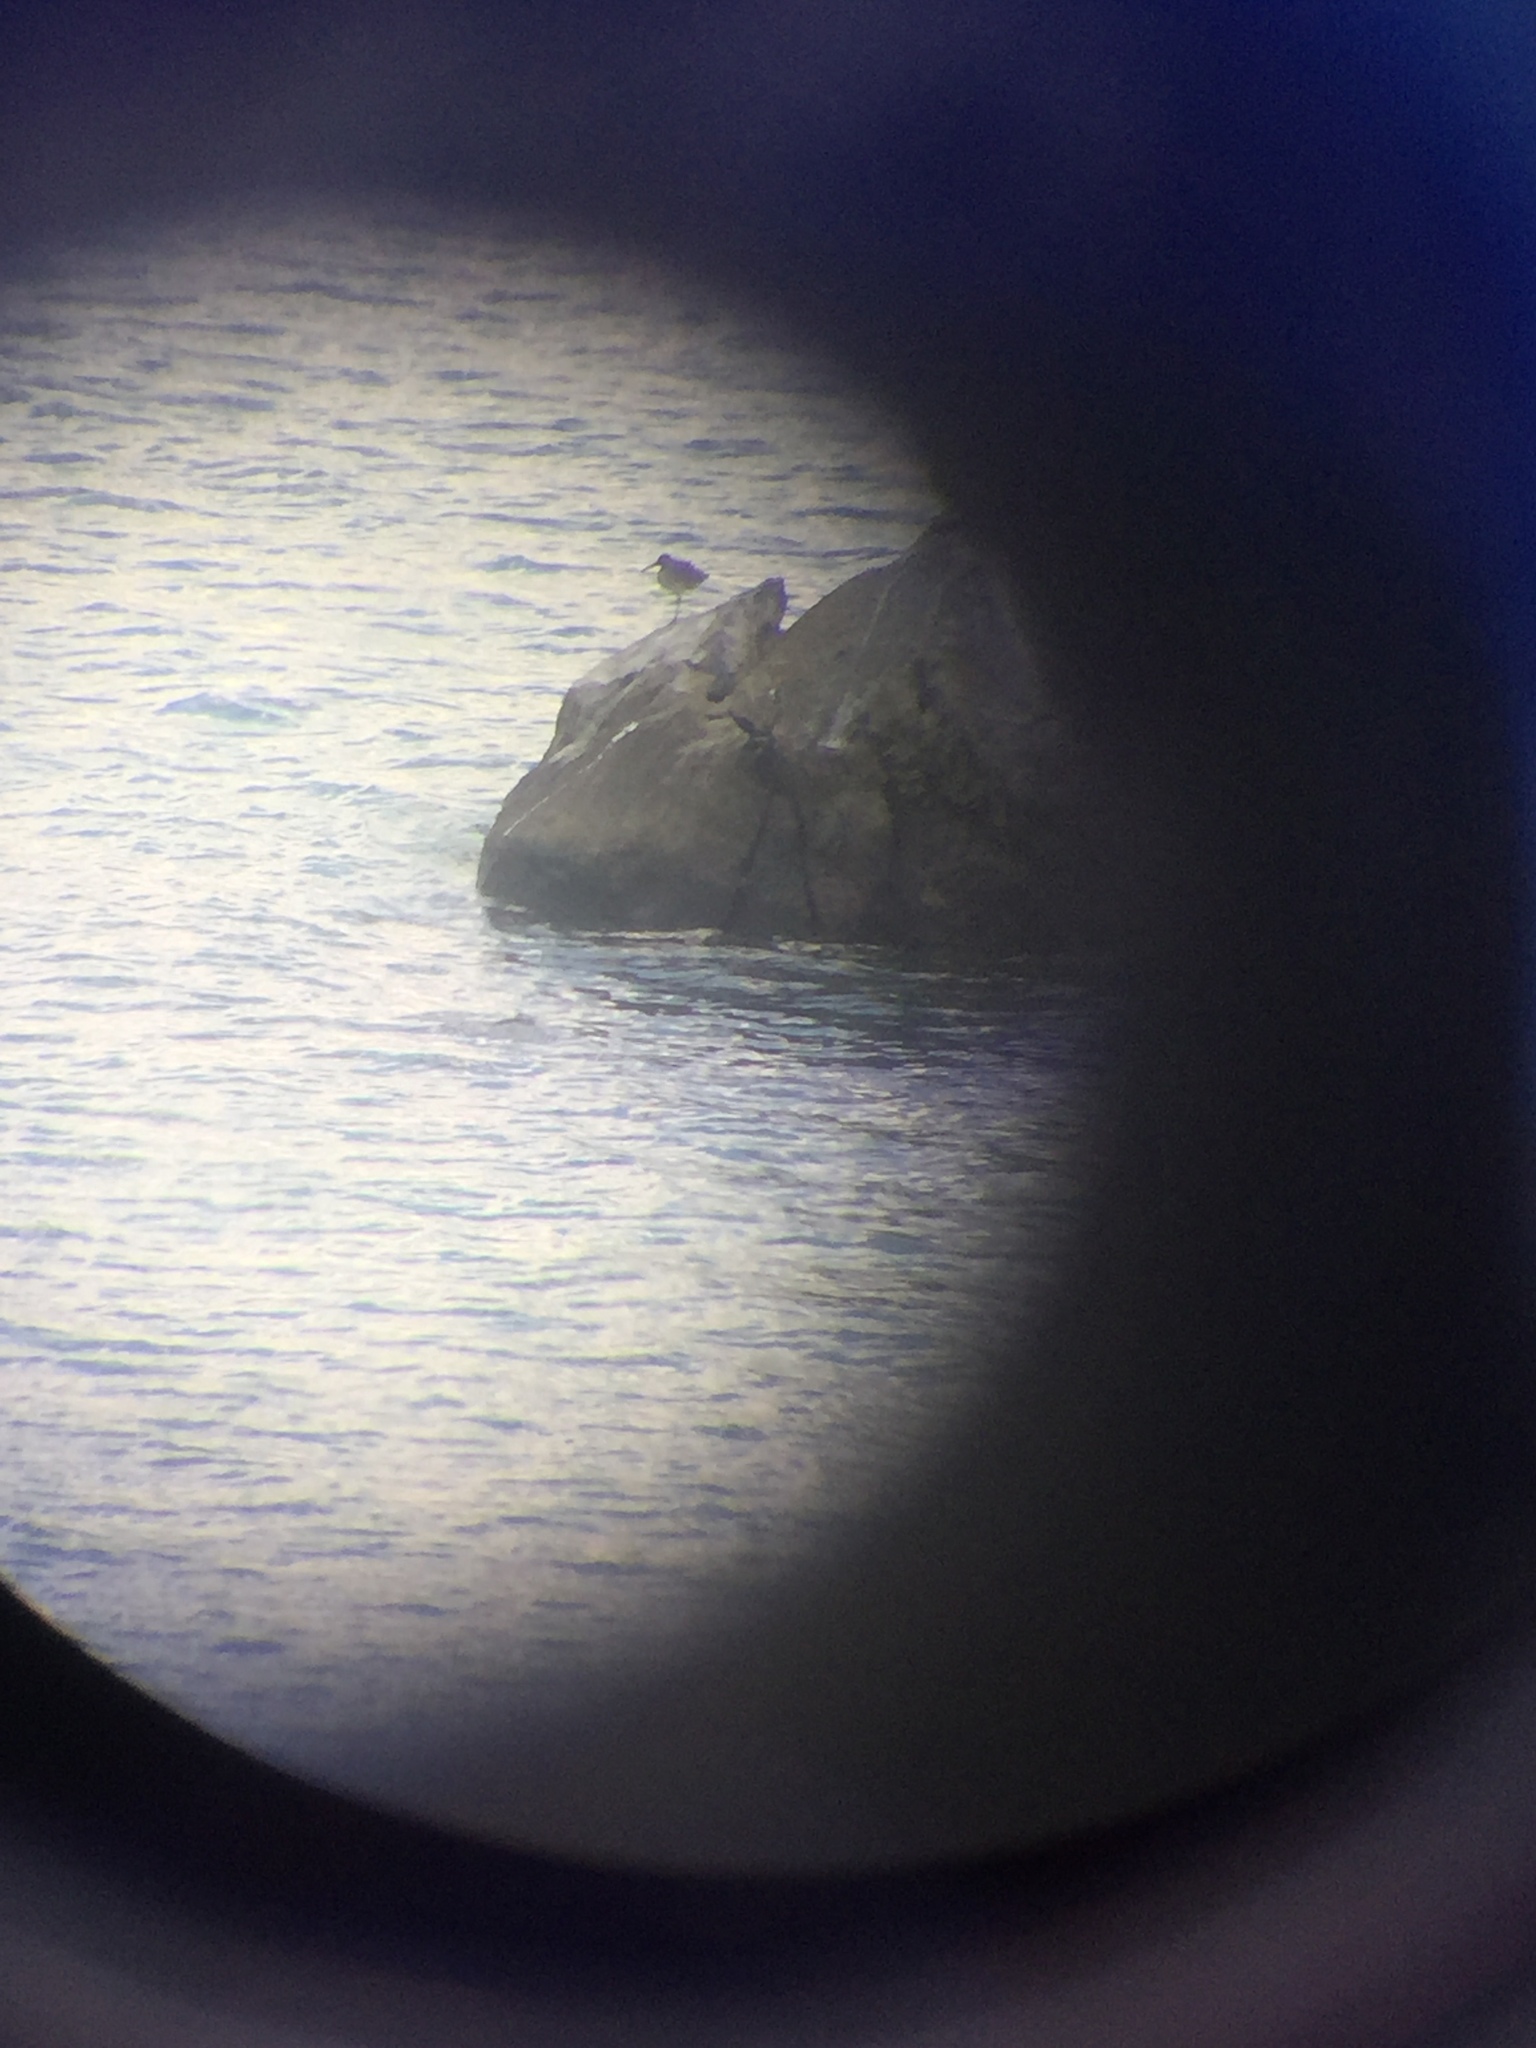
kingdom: Animalia
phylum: Chordata
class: Aves
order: Charadriiformes
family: Scolopacidae
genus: Tringa
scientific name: Tringa semipalmata
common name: Willet
